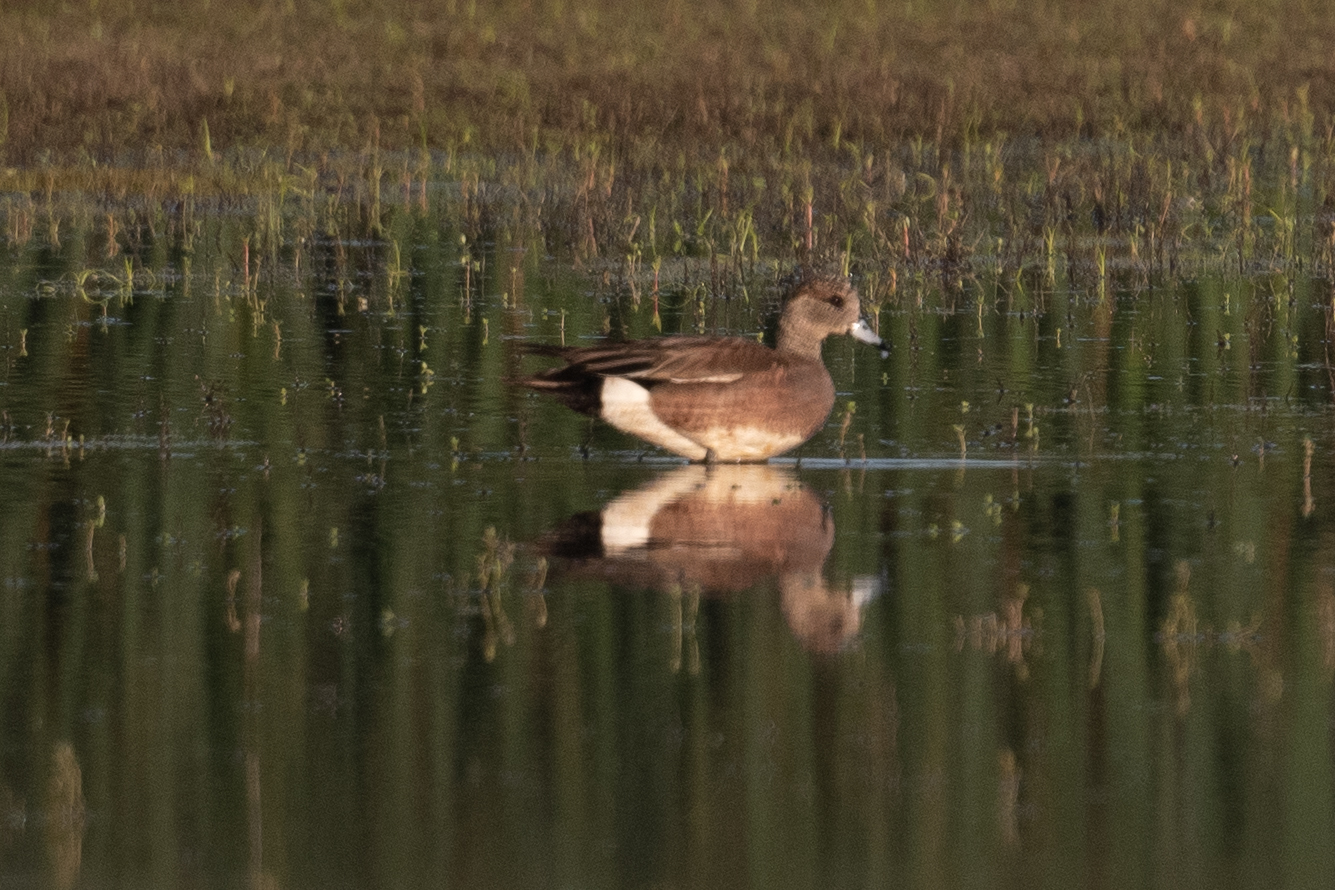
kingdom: Animalia
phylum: Chordata
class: Aves
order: Anseriformes
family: Anatidae
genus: Mareca
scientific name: Mareca americana
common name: American wigeon
